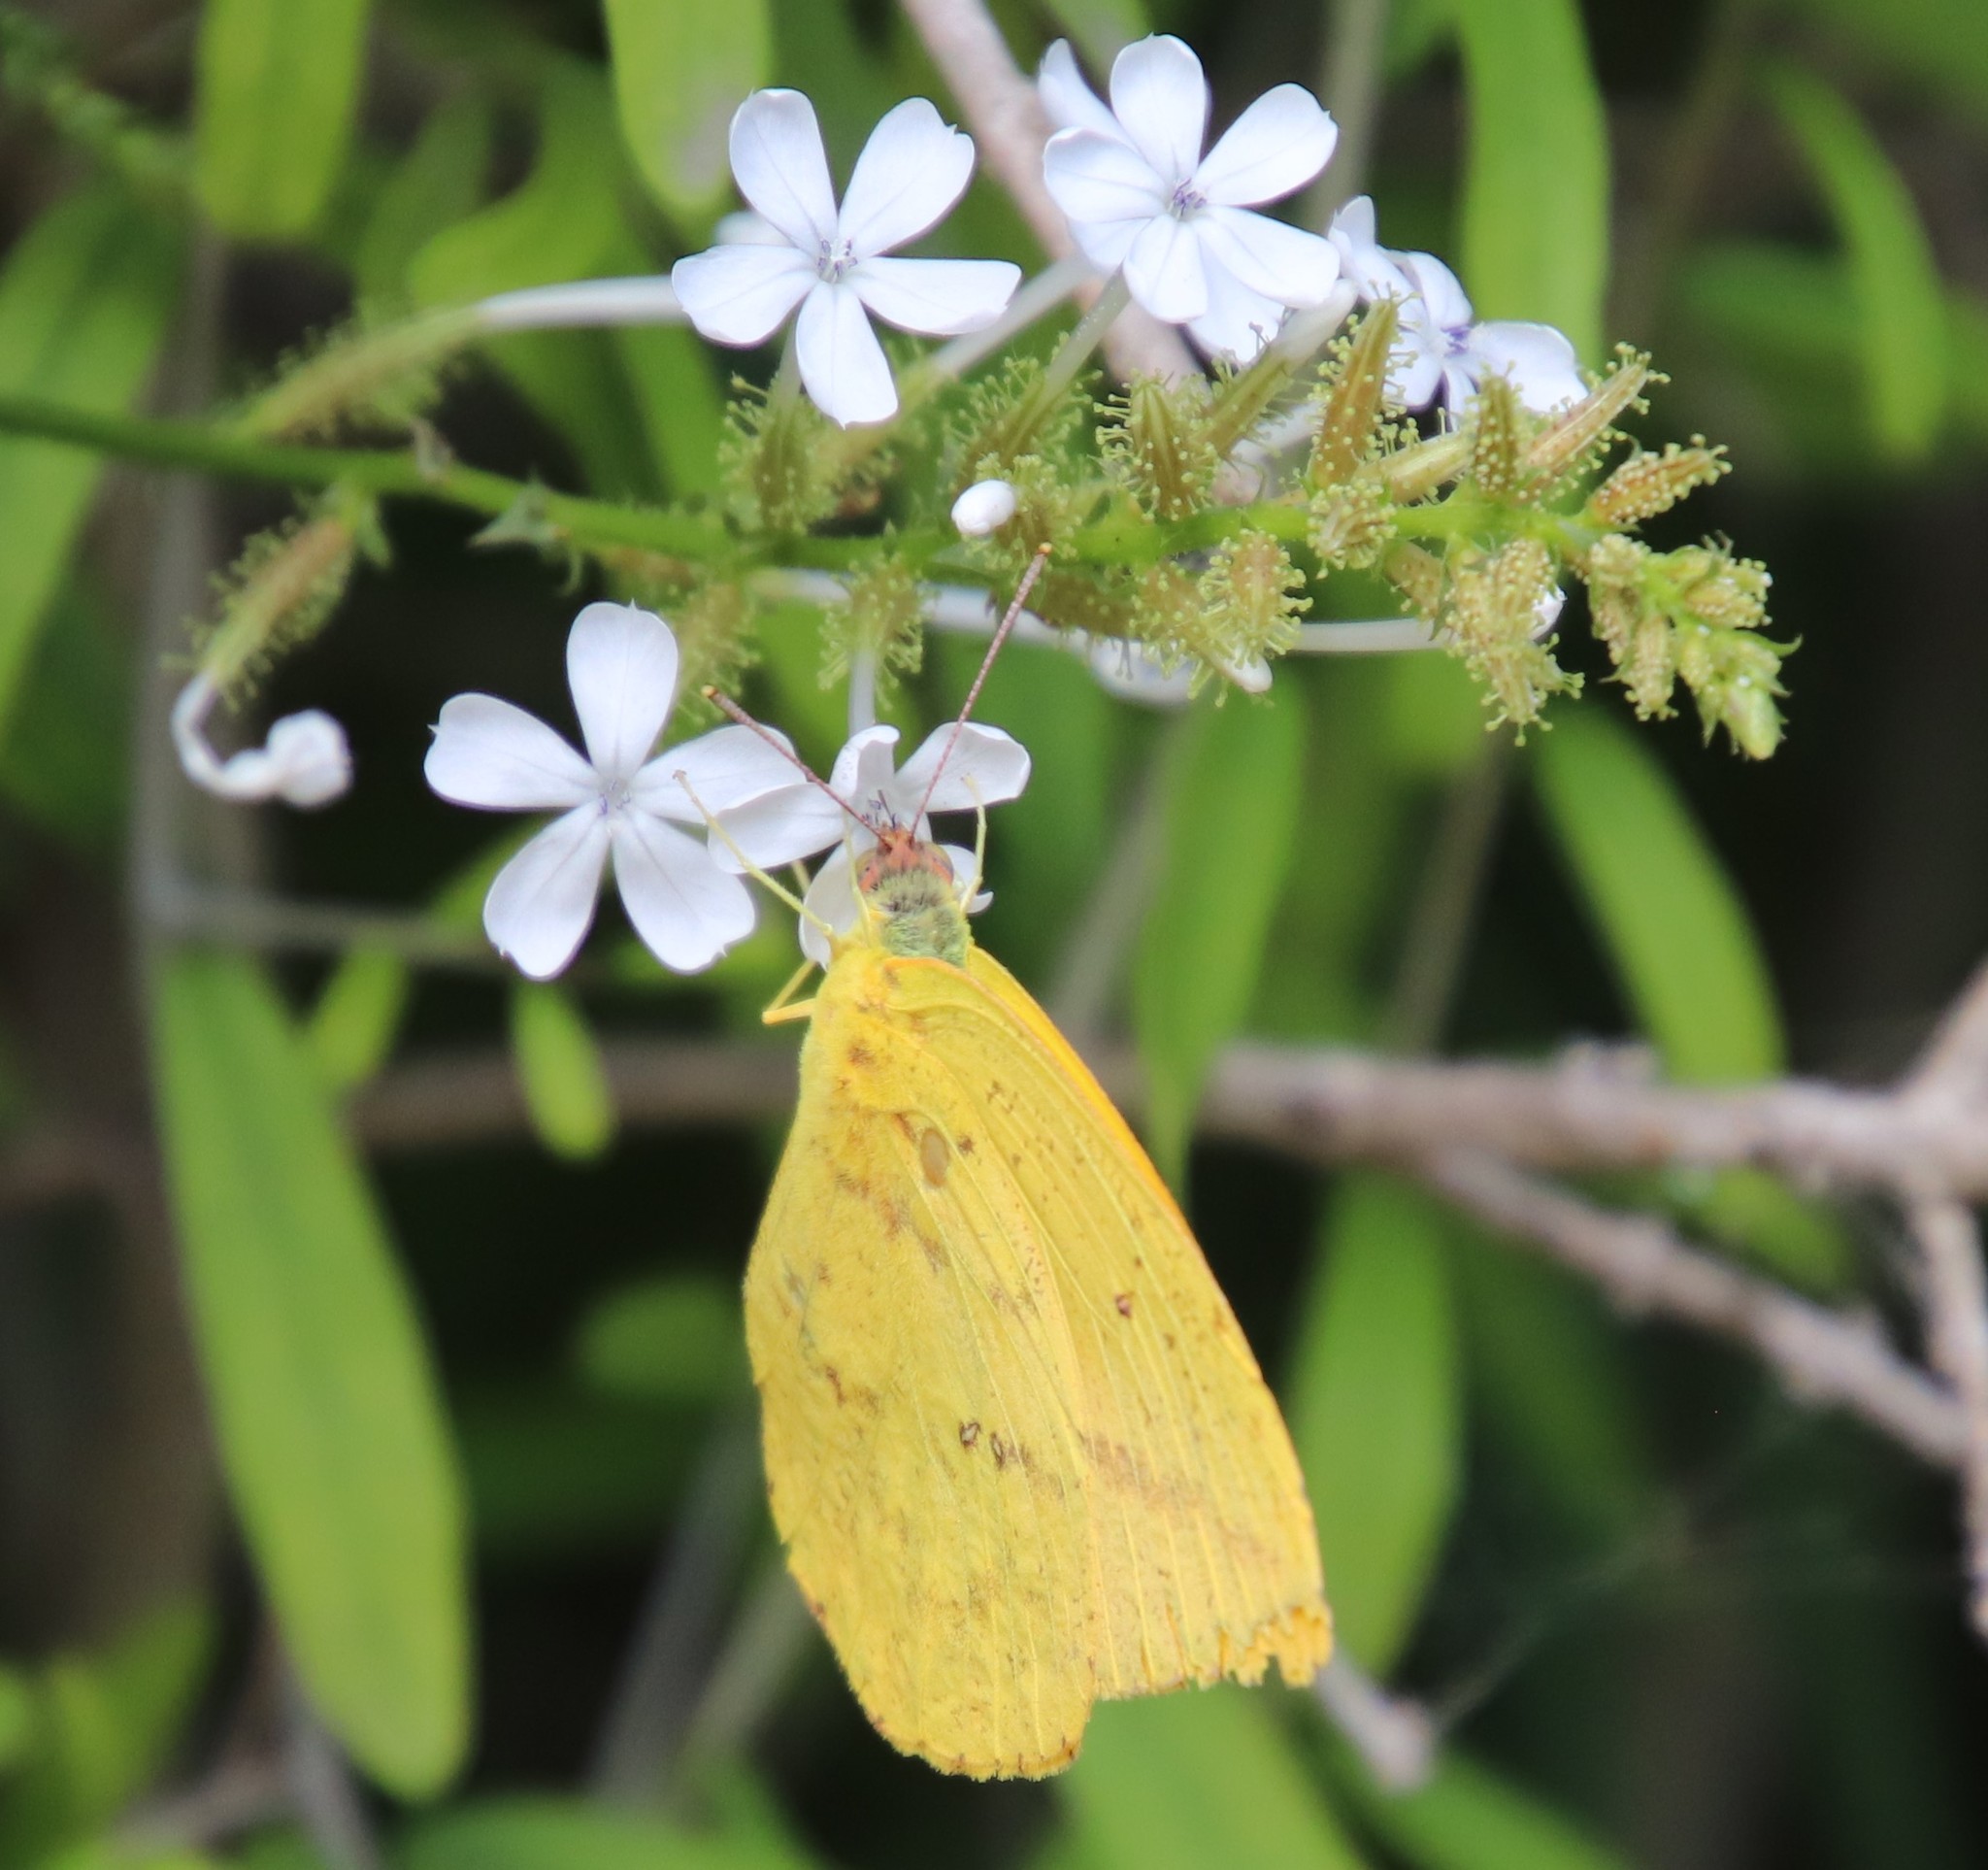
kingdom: Animalia
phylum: Arthropoda
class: Insecta
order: Lepidoptera
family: Pieridae
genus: Phoebis
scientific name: Phoebis agarithe
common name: Large orange sulphur
